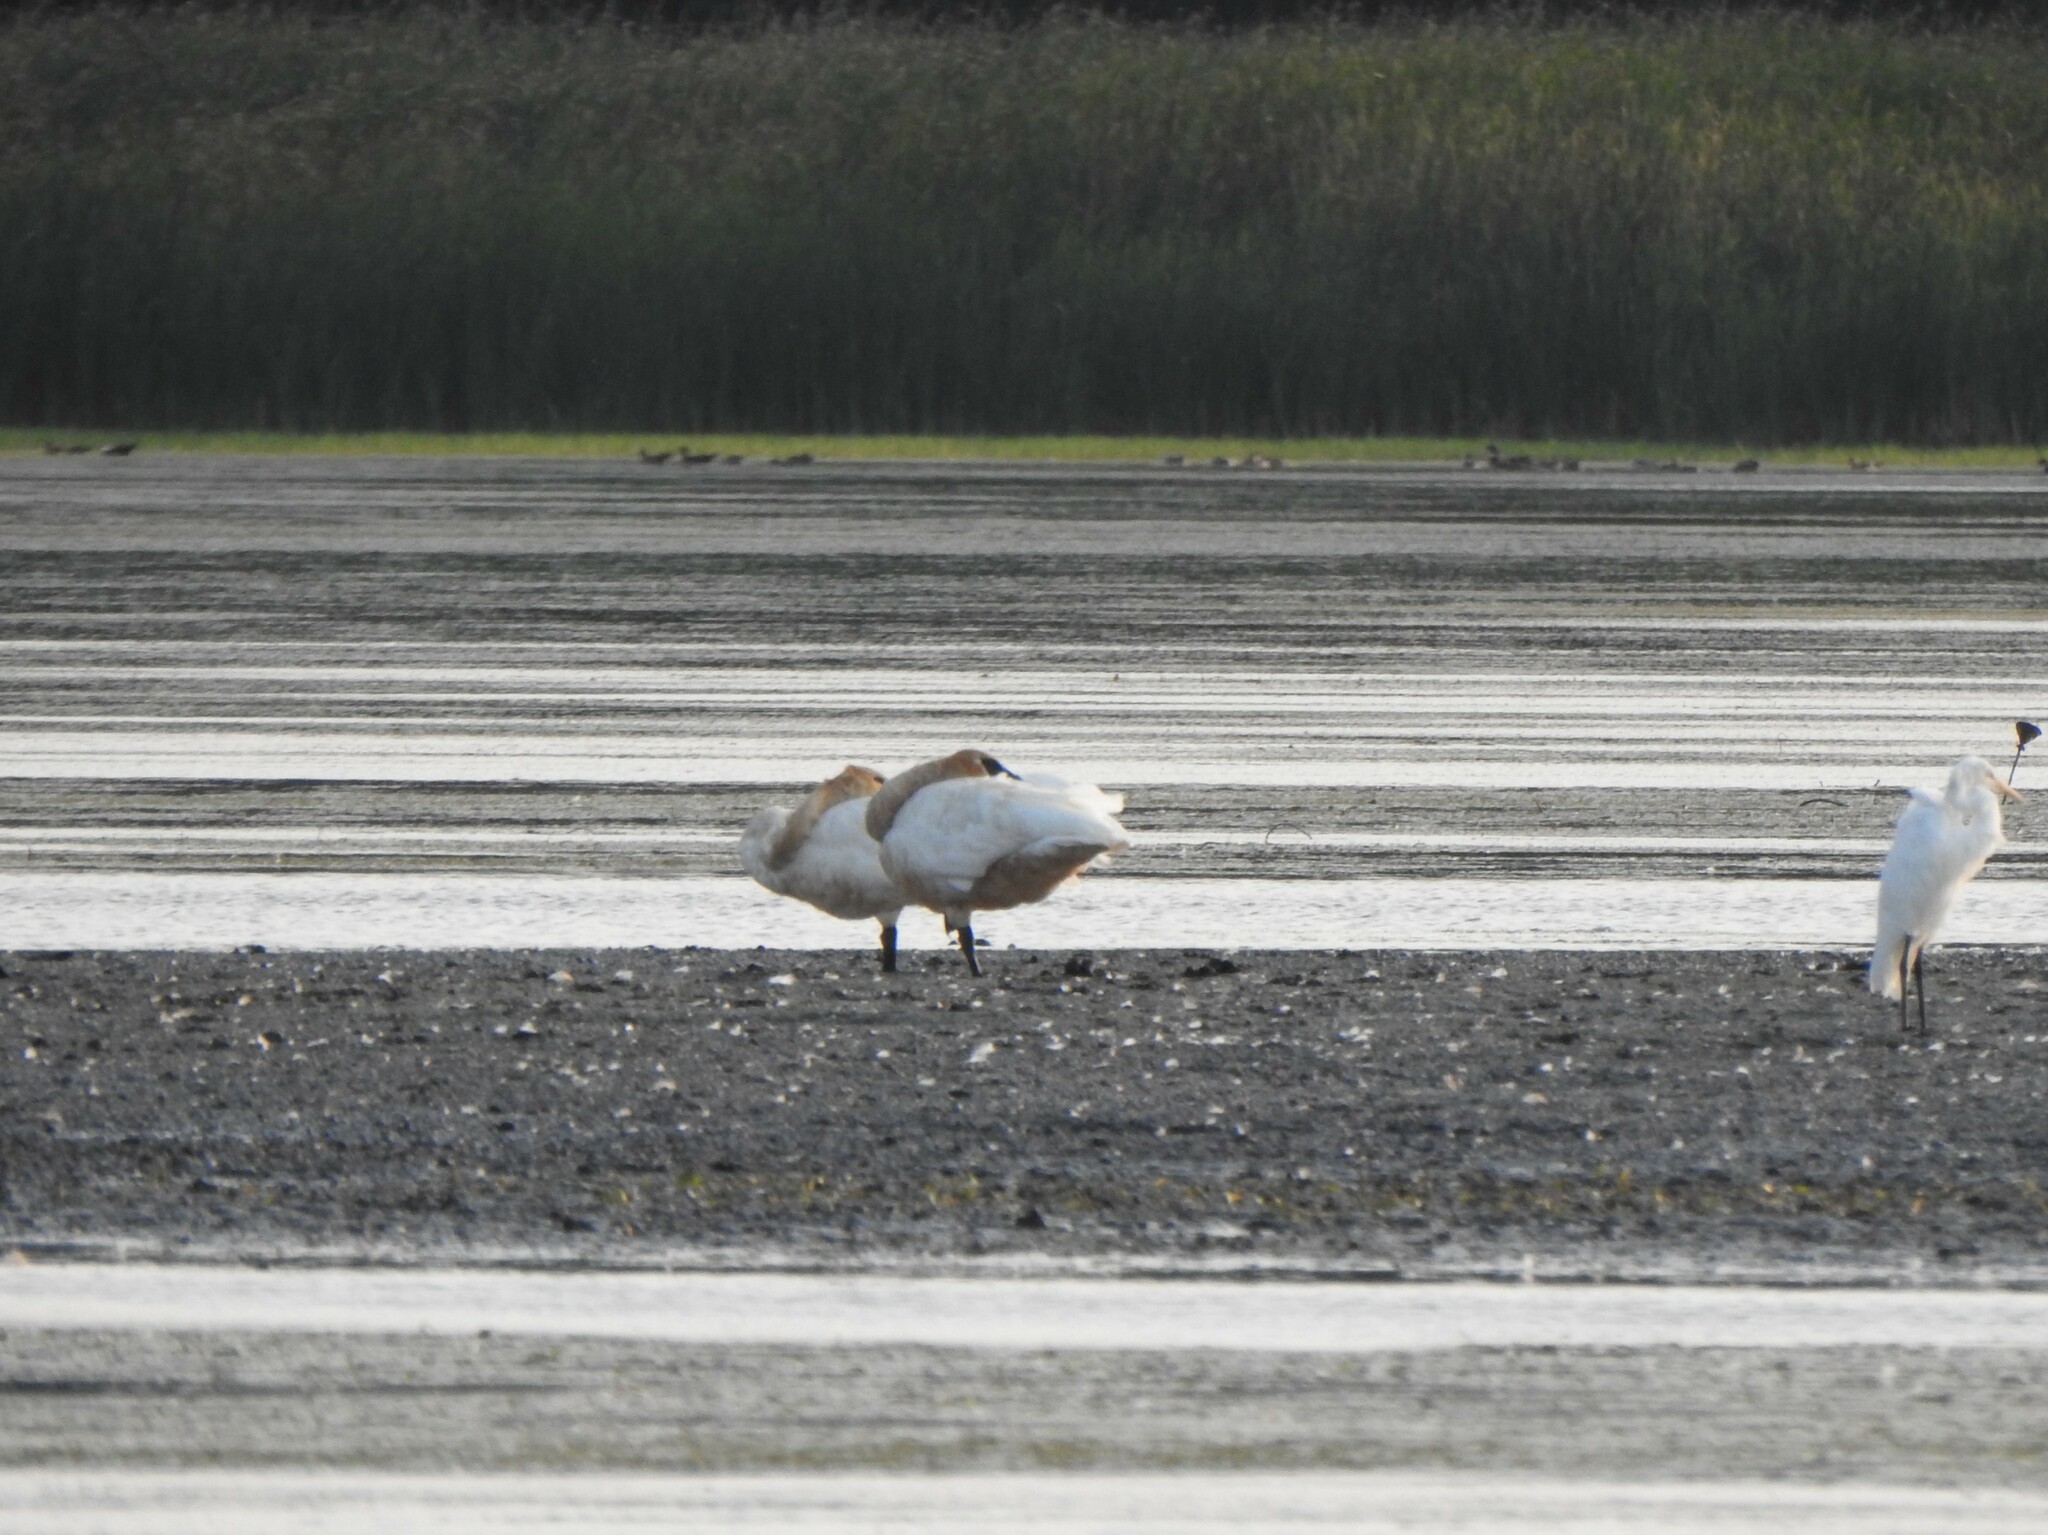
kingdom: Animalia
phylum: Chordata
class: Aves
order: Anseriformes
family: Anatidae
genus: Cygnus
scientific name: Cygnus buccinator
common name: Trumpeter swan
